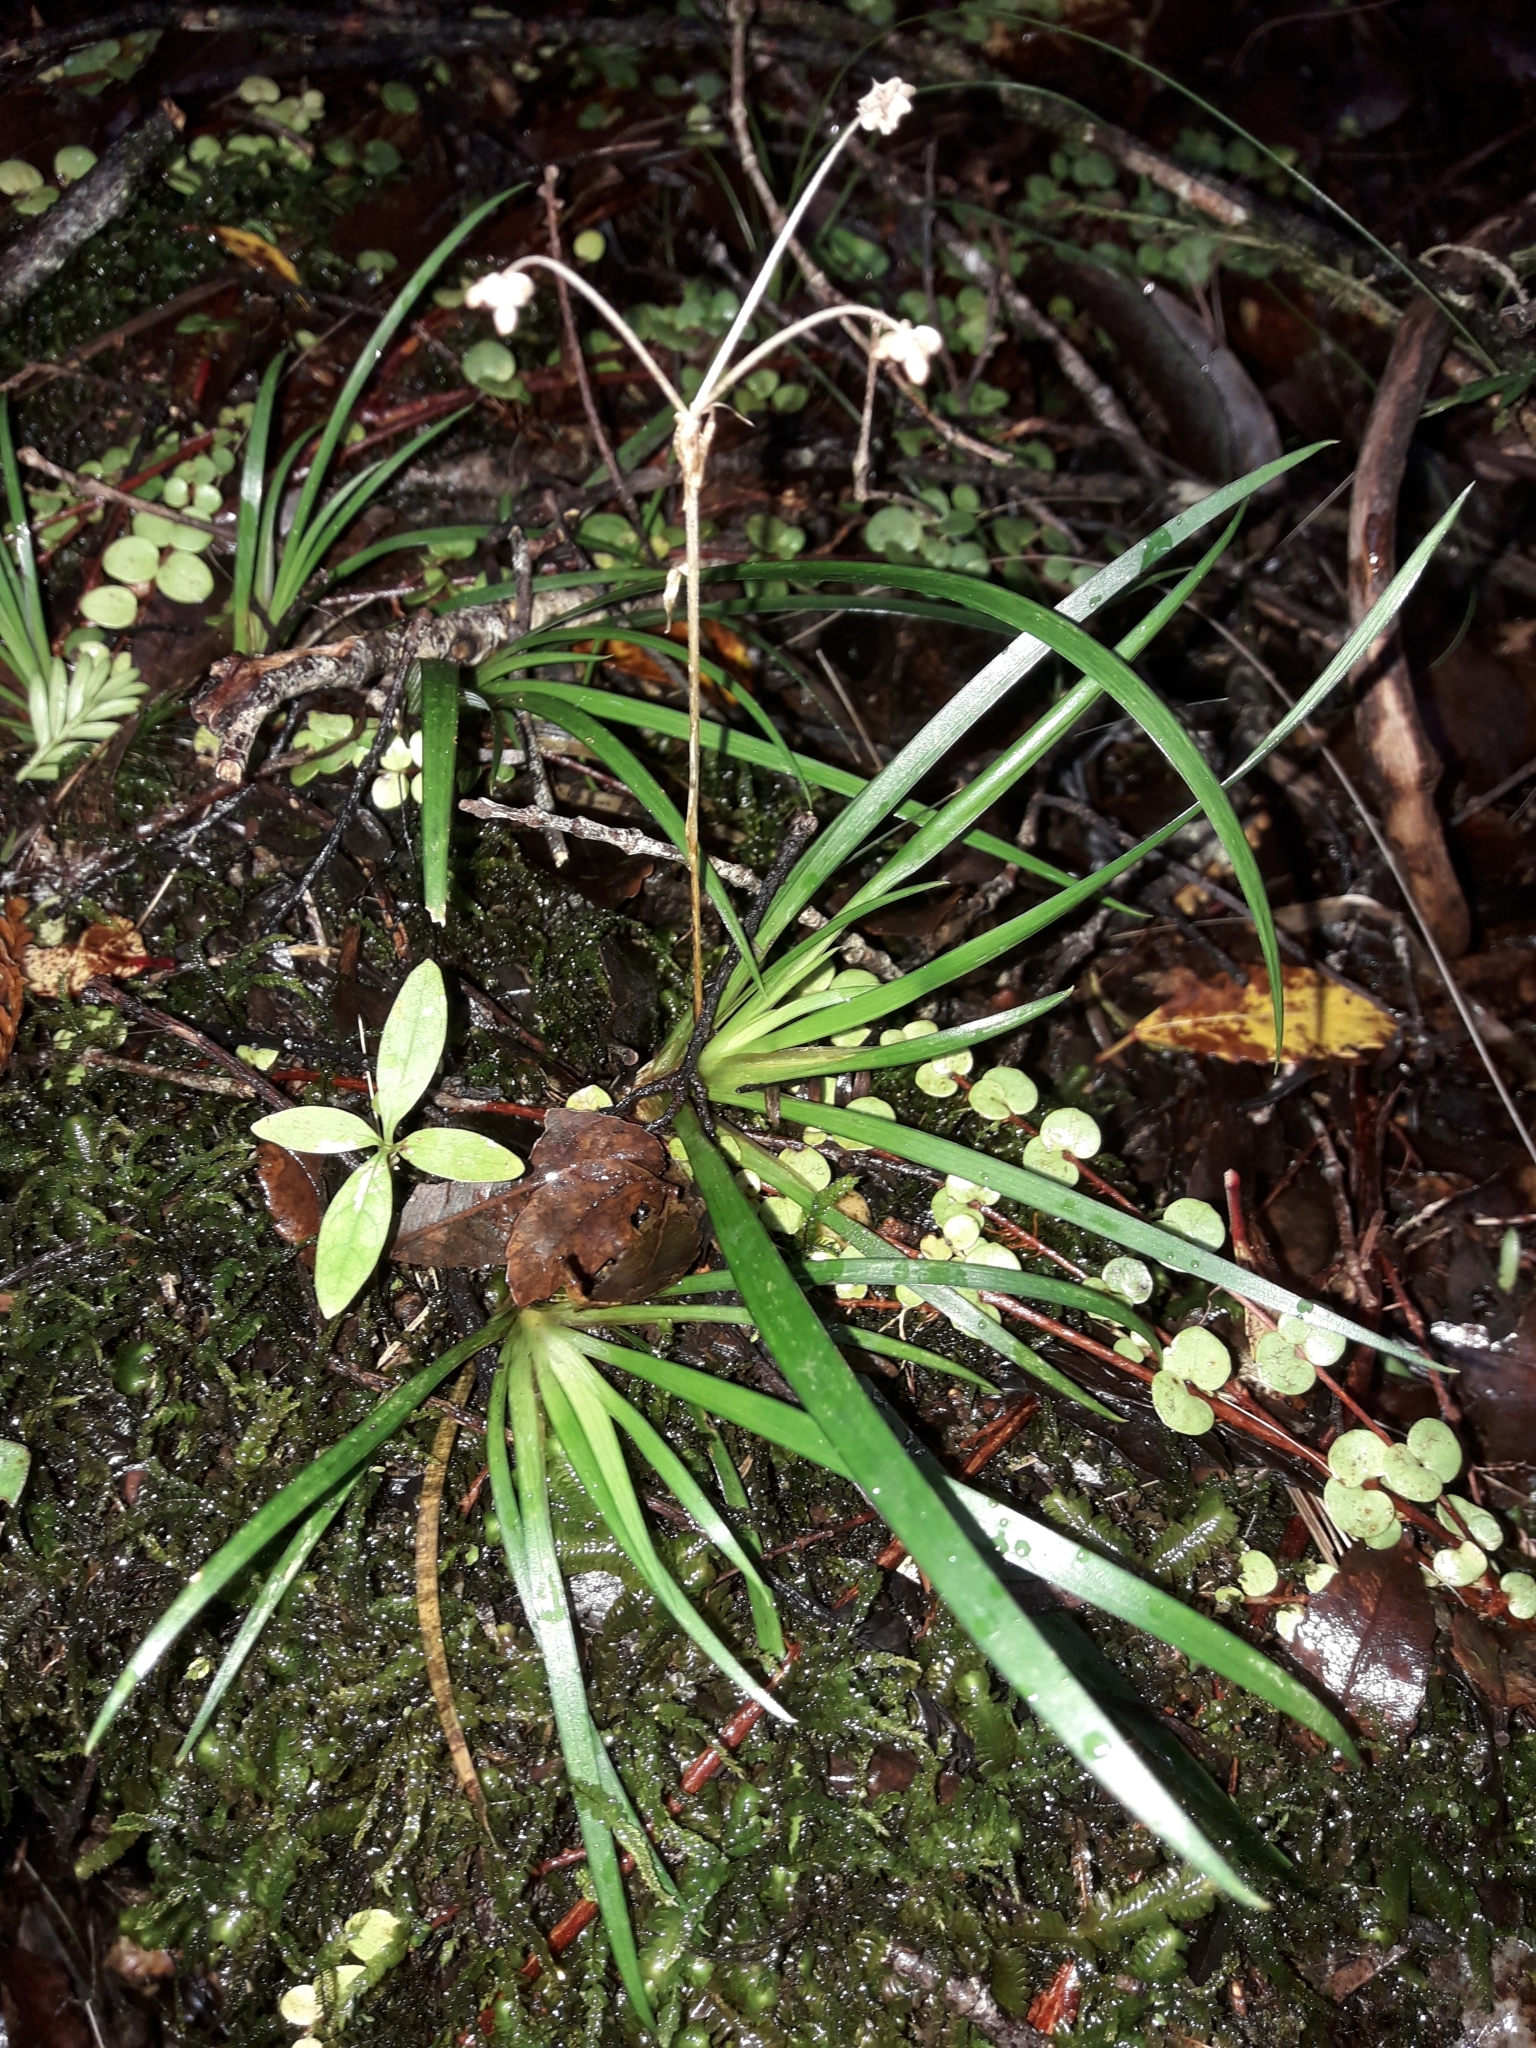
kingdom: Plantae
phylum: Tracheophyta
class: Liliopsida
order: Asparagales
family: Iridaceae
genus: Libertia
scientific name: Libertia micrantha
